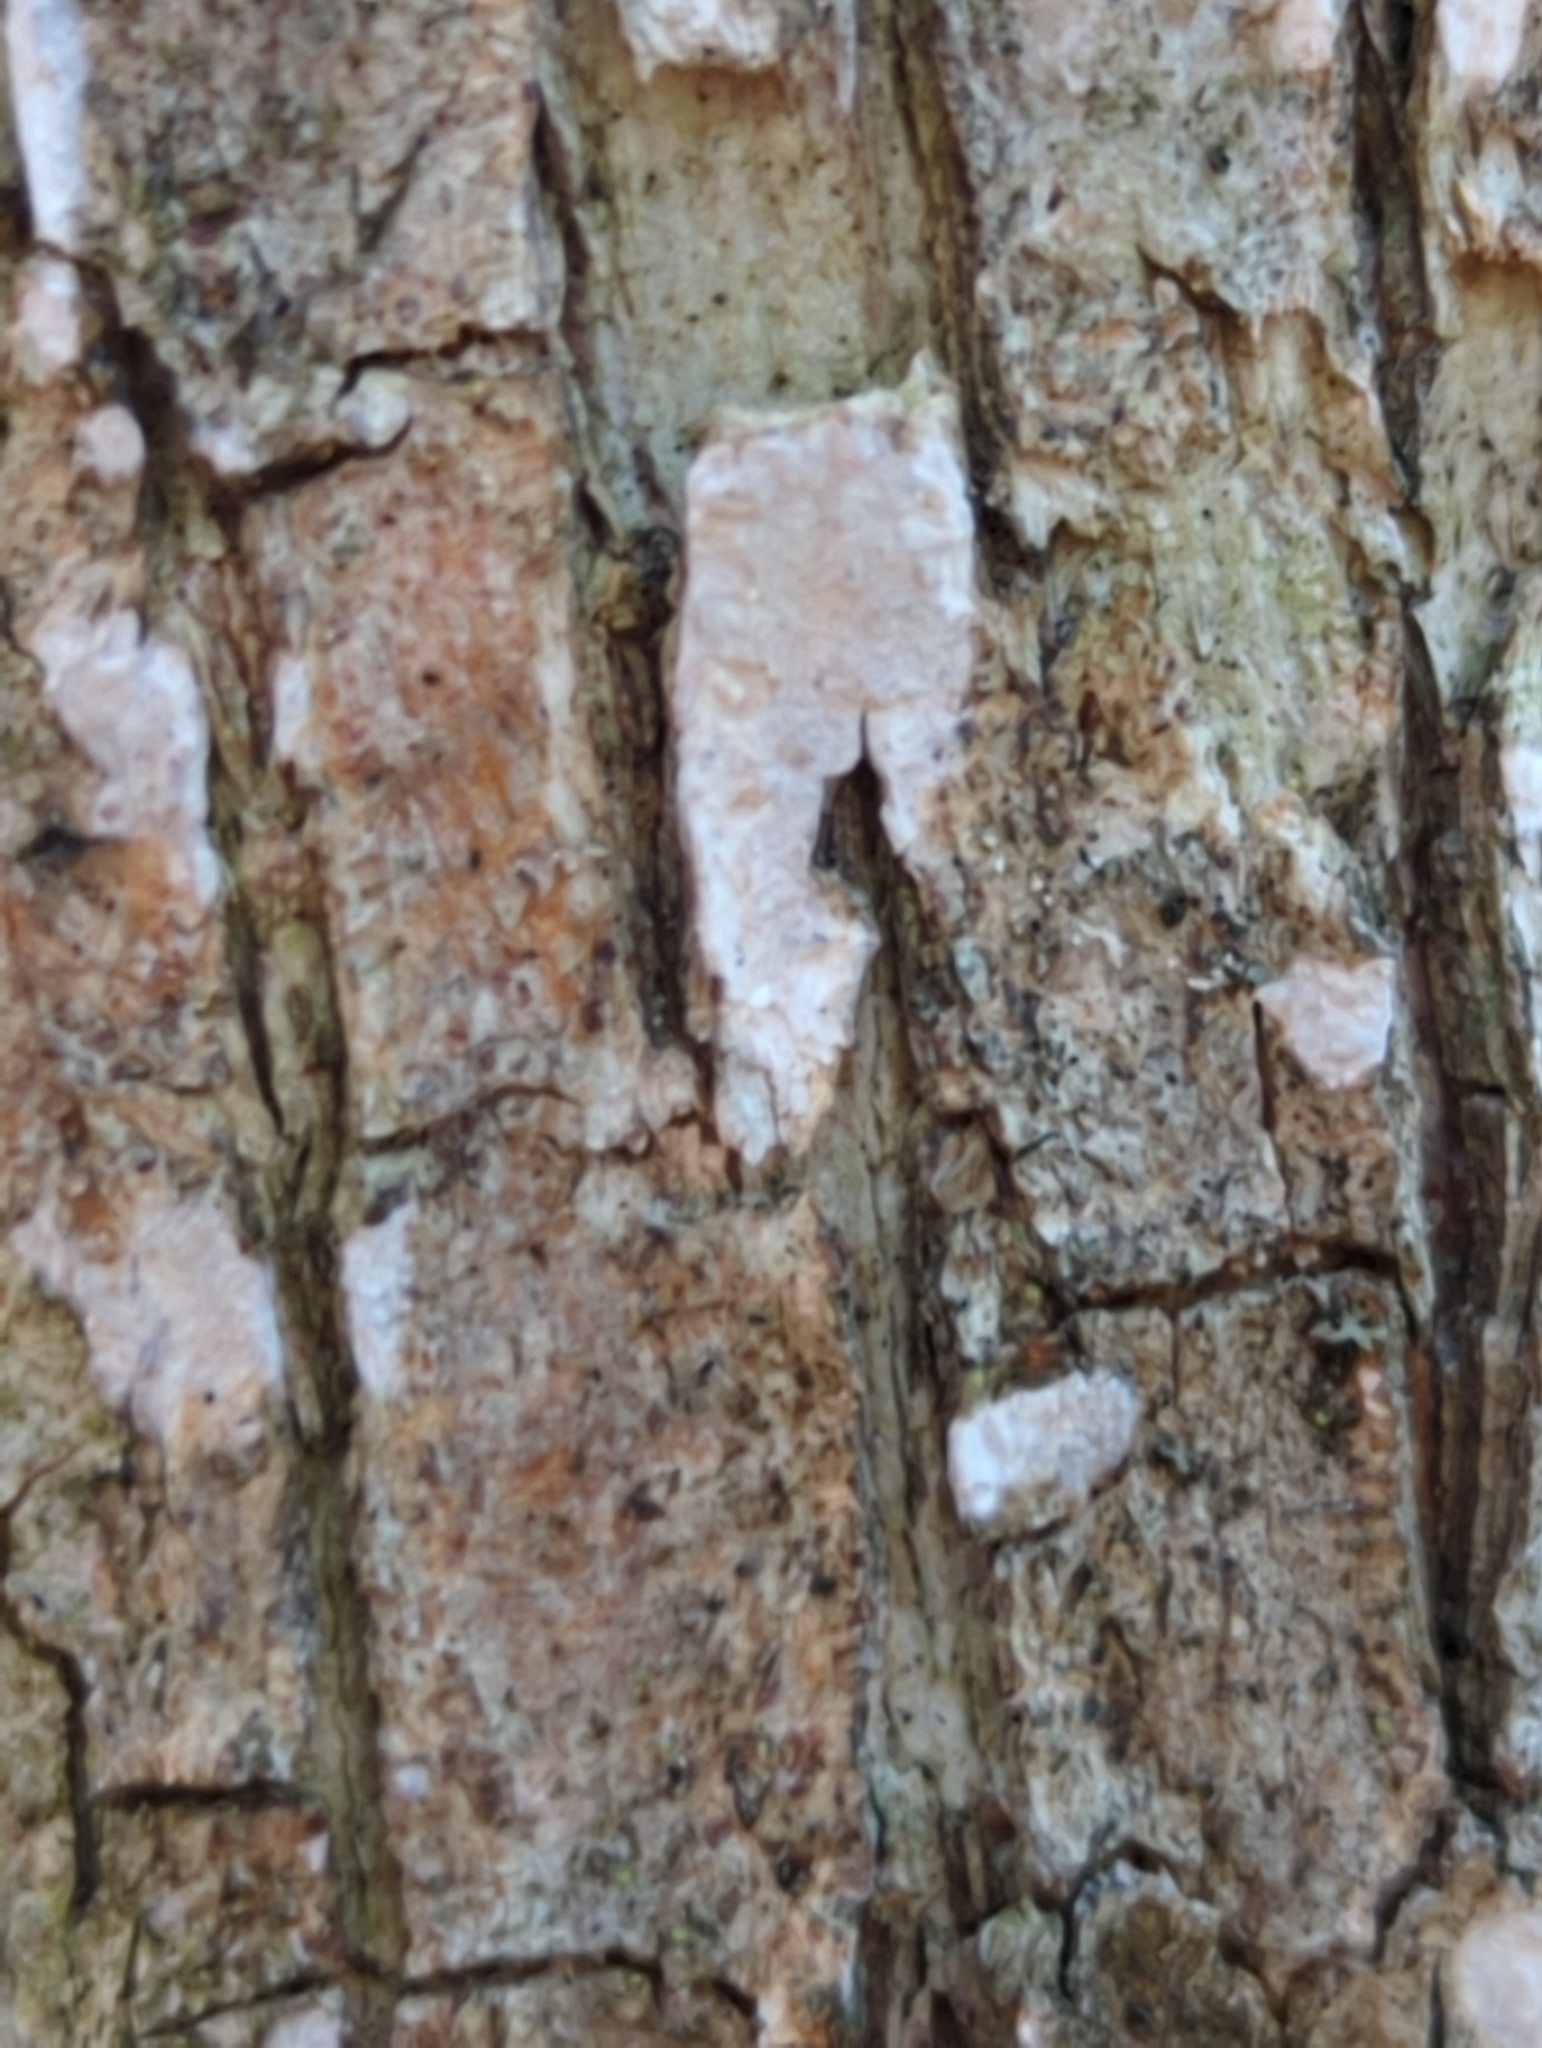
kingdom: Fungi
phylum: Basidiomycota
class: Agaricomycetes
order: Russulales
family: Stereaceae
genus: Acanthophysium
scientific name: Acanthophysium oakesii
